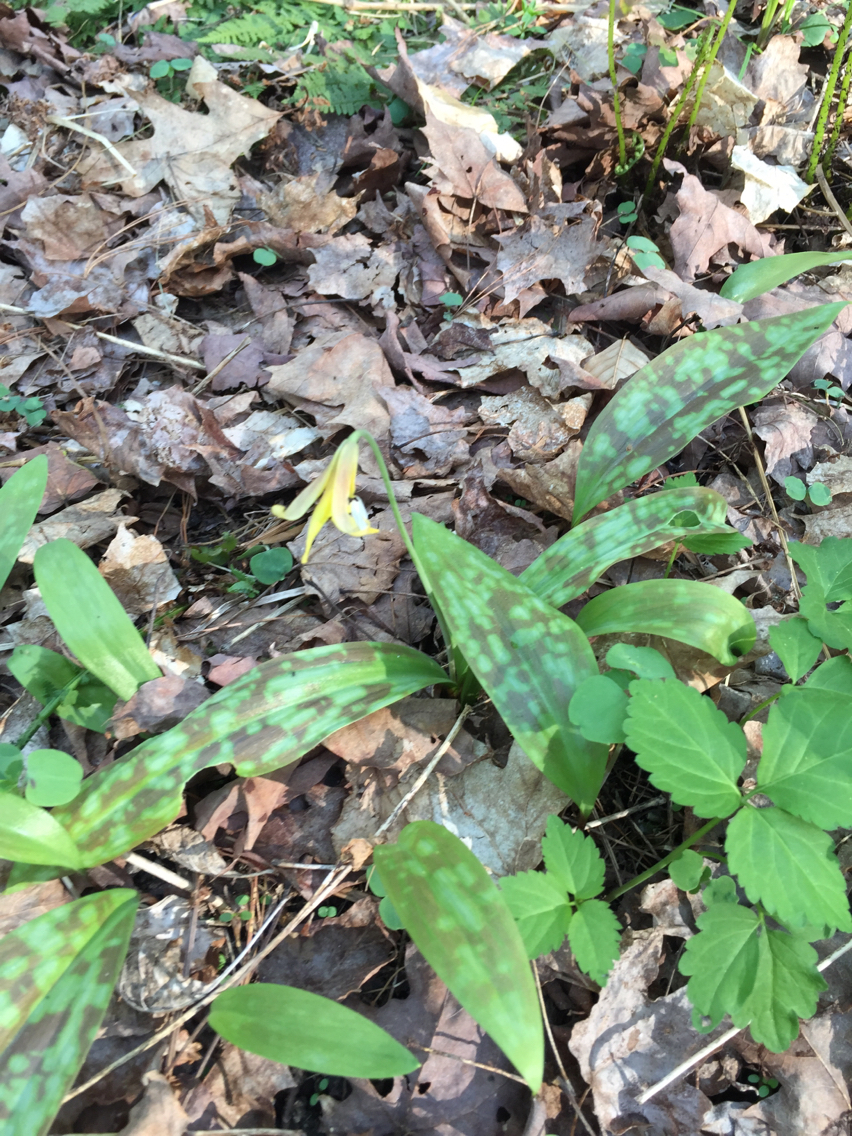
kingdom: Plantae
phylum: Tracheophyta
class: Liliopsida
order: Liliales
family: Liliaceae
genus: Erythronium
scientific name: Erythronium americanum
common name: Yellow adder's-tongue
